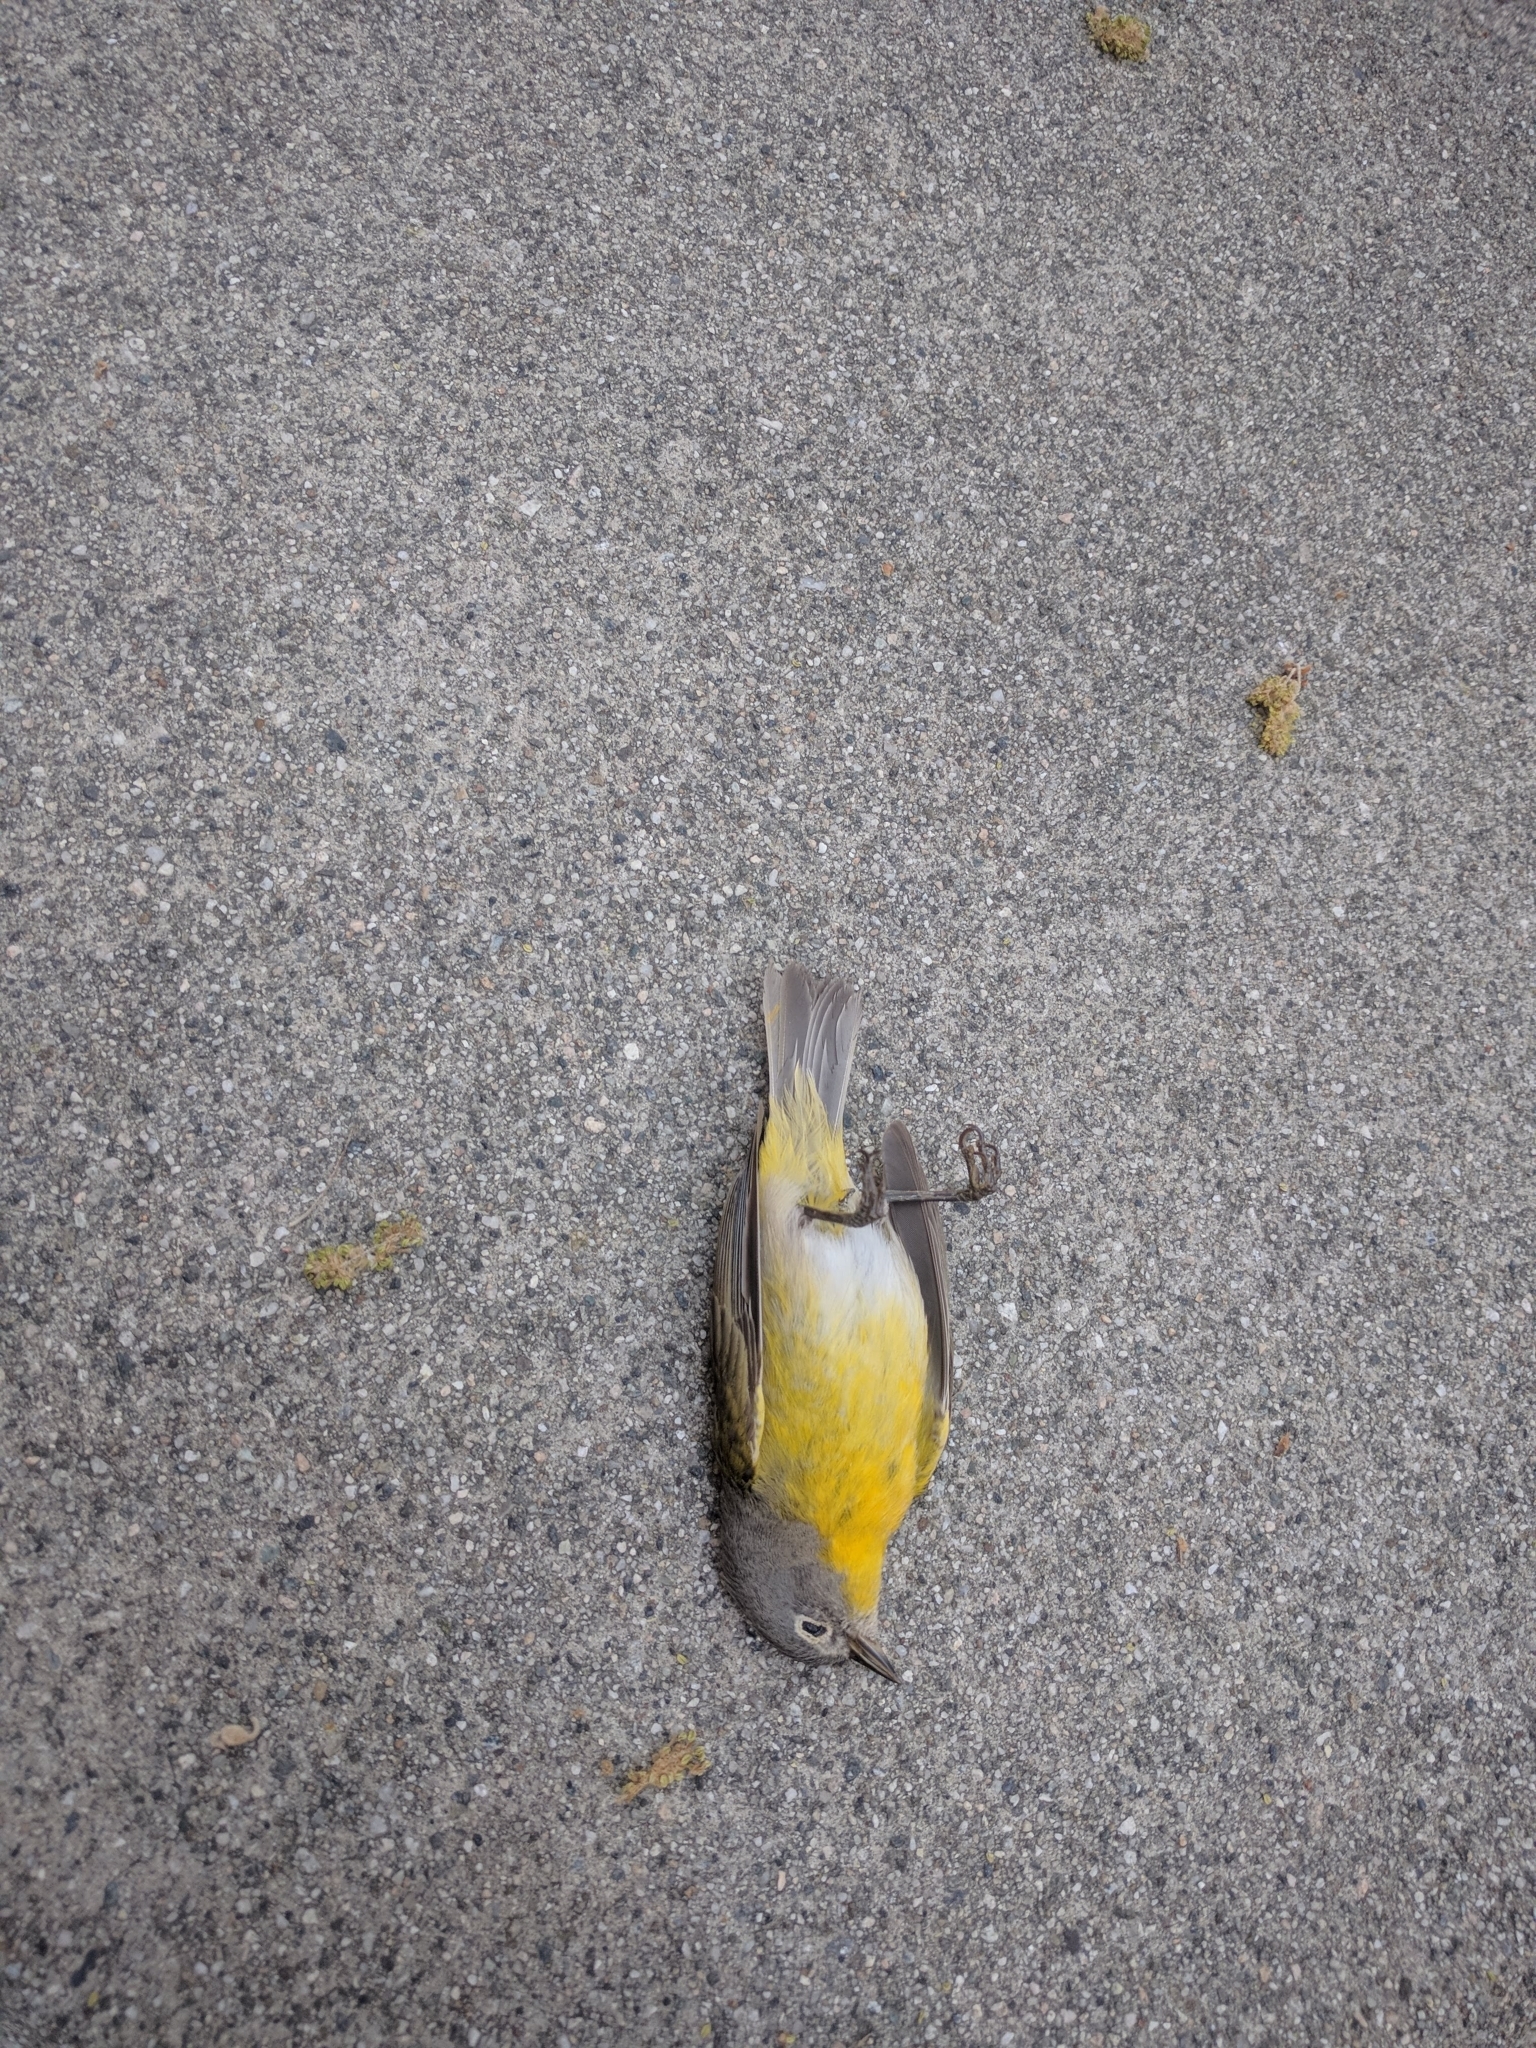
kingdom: Animalia
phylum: Chordata
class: Aves
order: Passeriformes
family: Parulidae
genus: Leiothlypis
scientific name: Leiothlypis ruficapilla
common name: Nashville warbler
